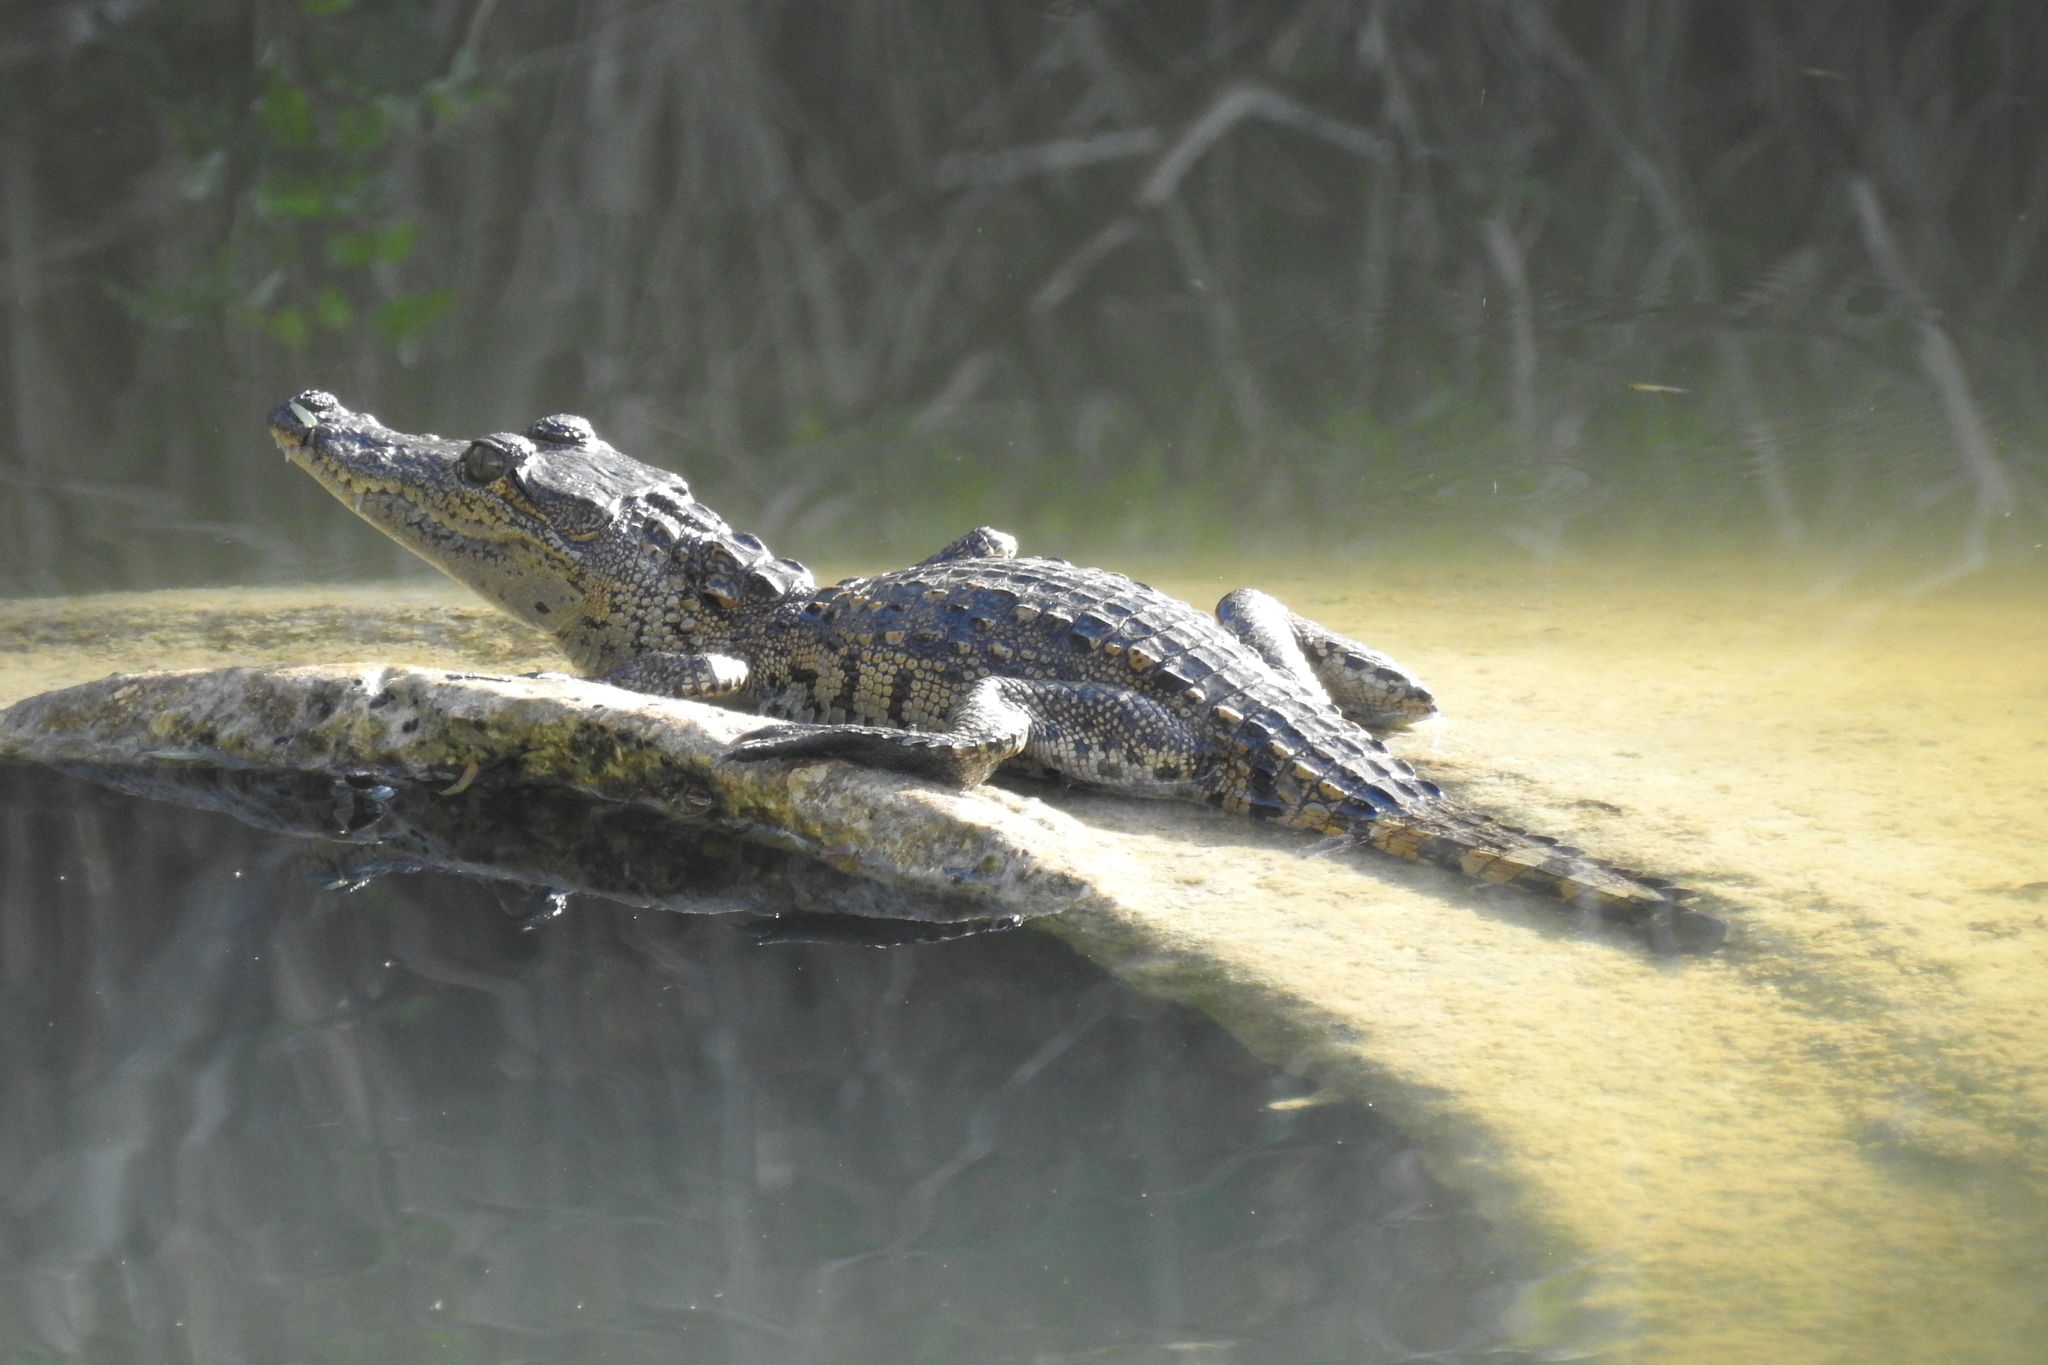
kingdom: Animalia
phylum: Chordata
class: Crocodylia
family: Crocodylidae
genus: Crocodylus
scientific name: Crocodylus moreletii
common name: Morelet's crocodile
